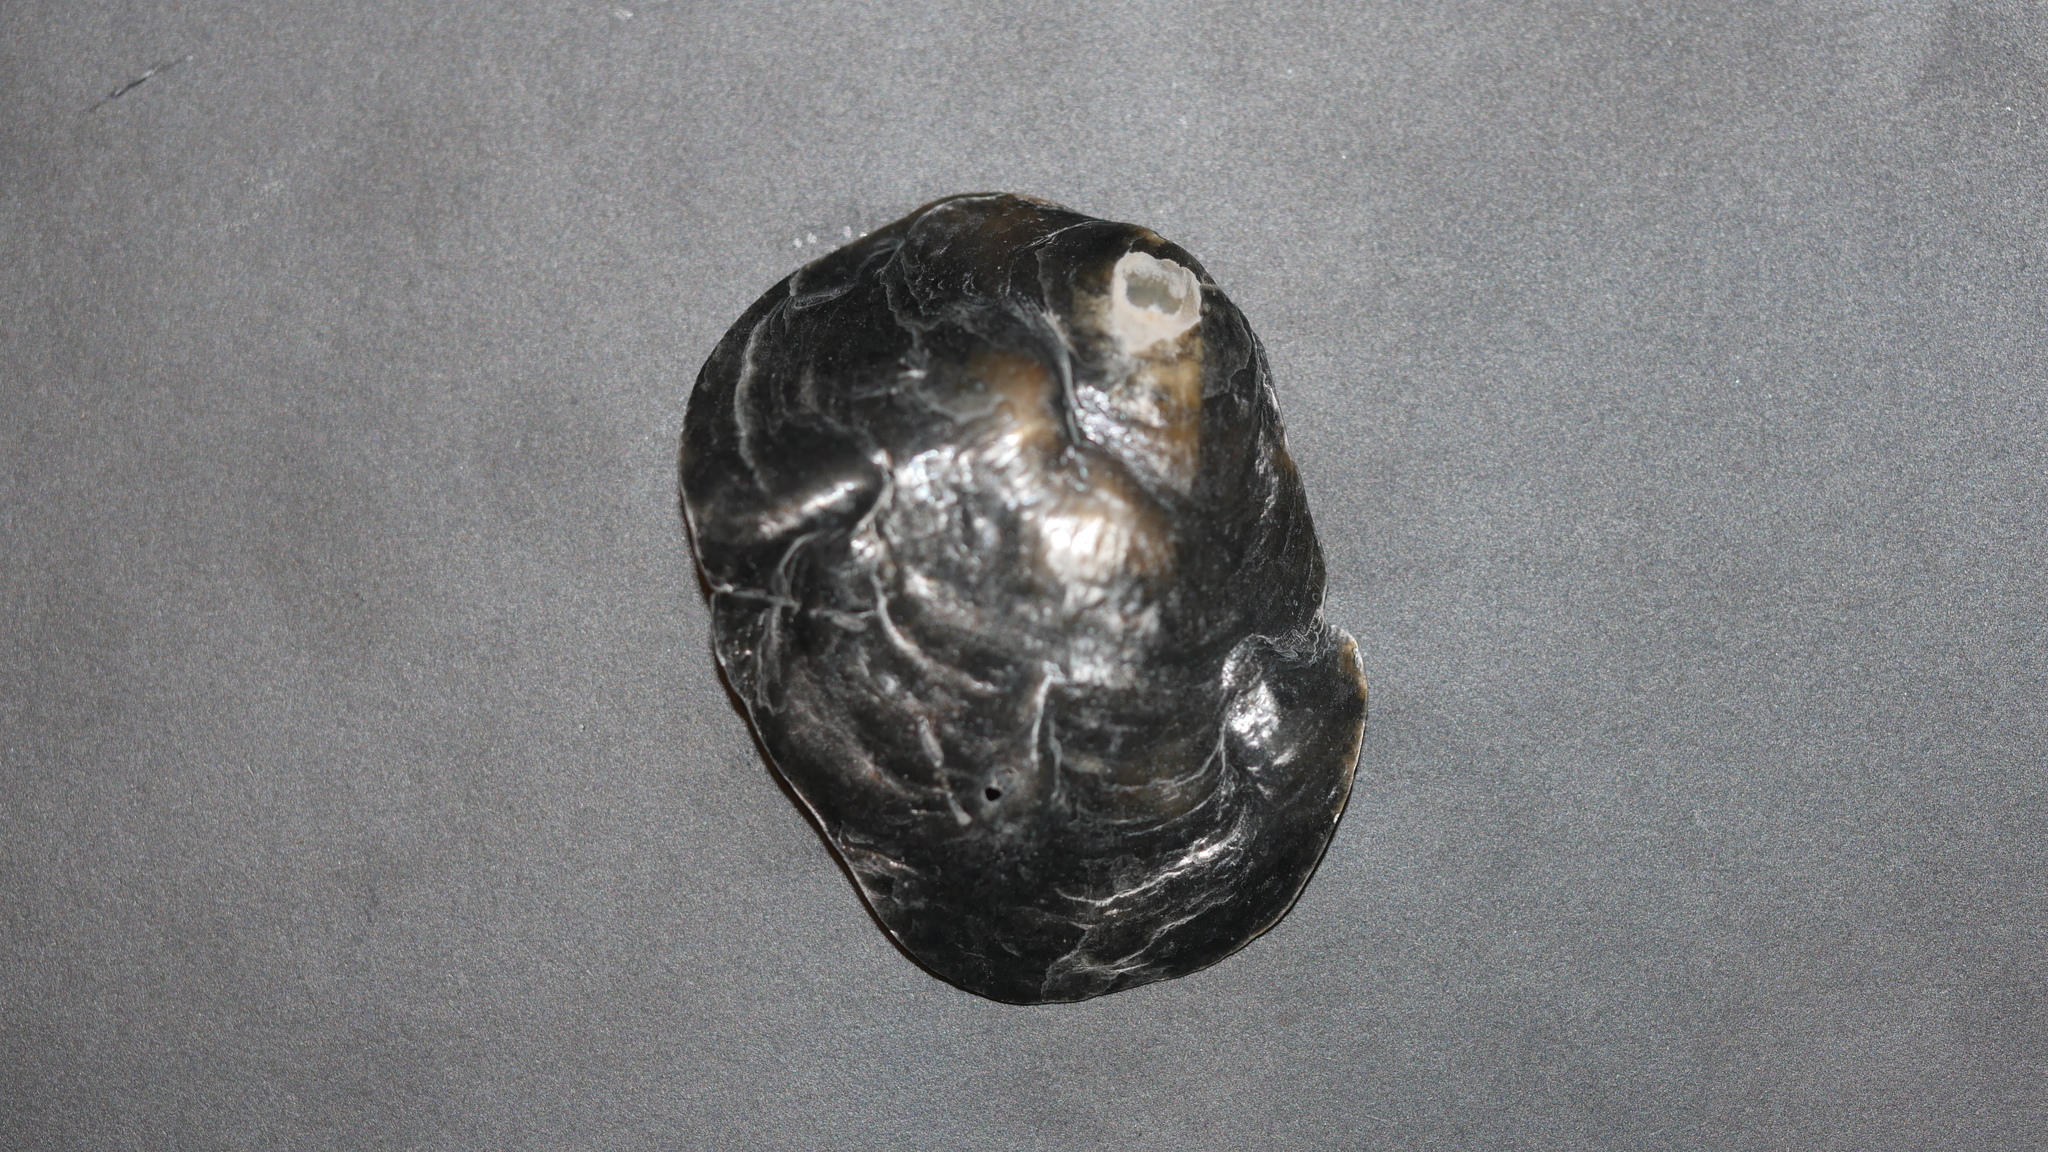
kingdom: Animalia
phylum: Mollusca
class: Bivalvia
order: Pectinida
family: Anomiidae
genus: Anomia
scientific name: Anomia simplex
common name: Common jingle shell
